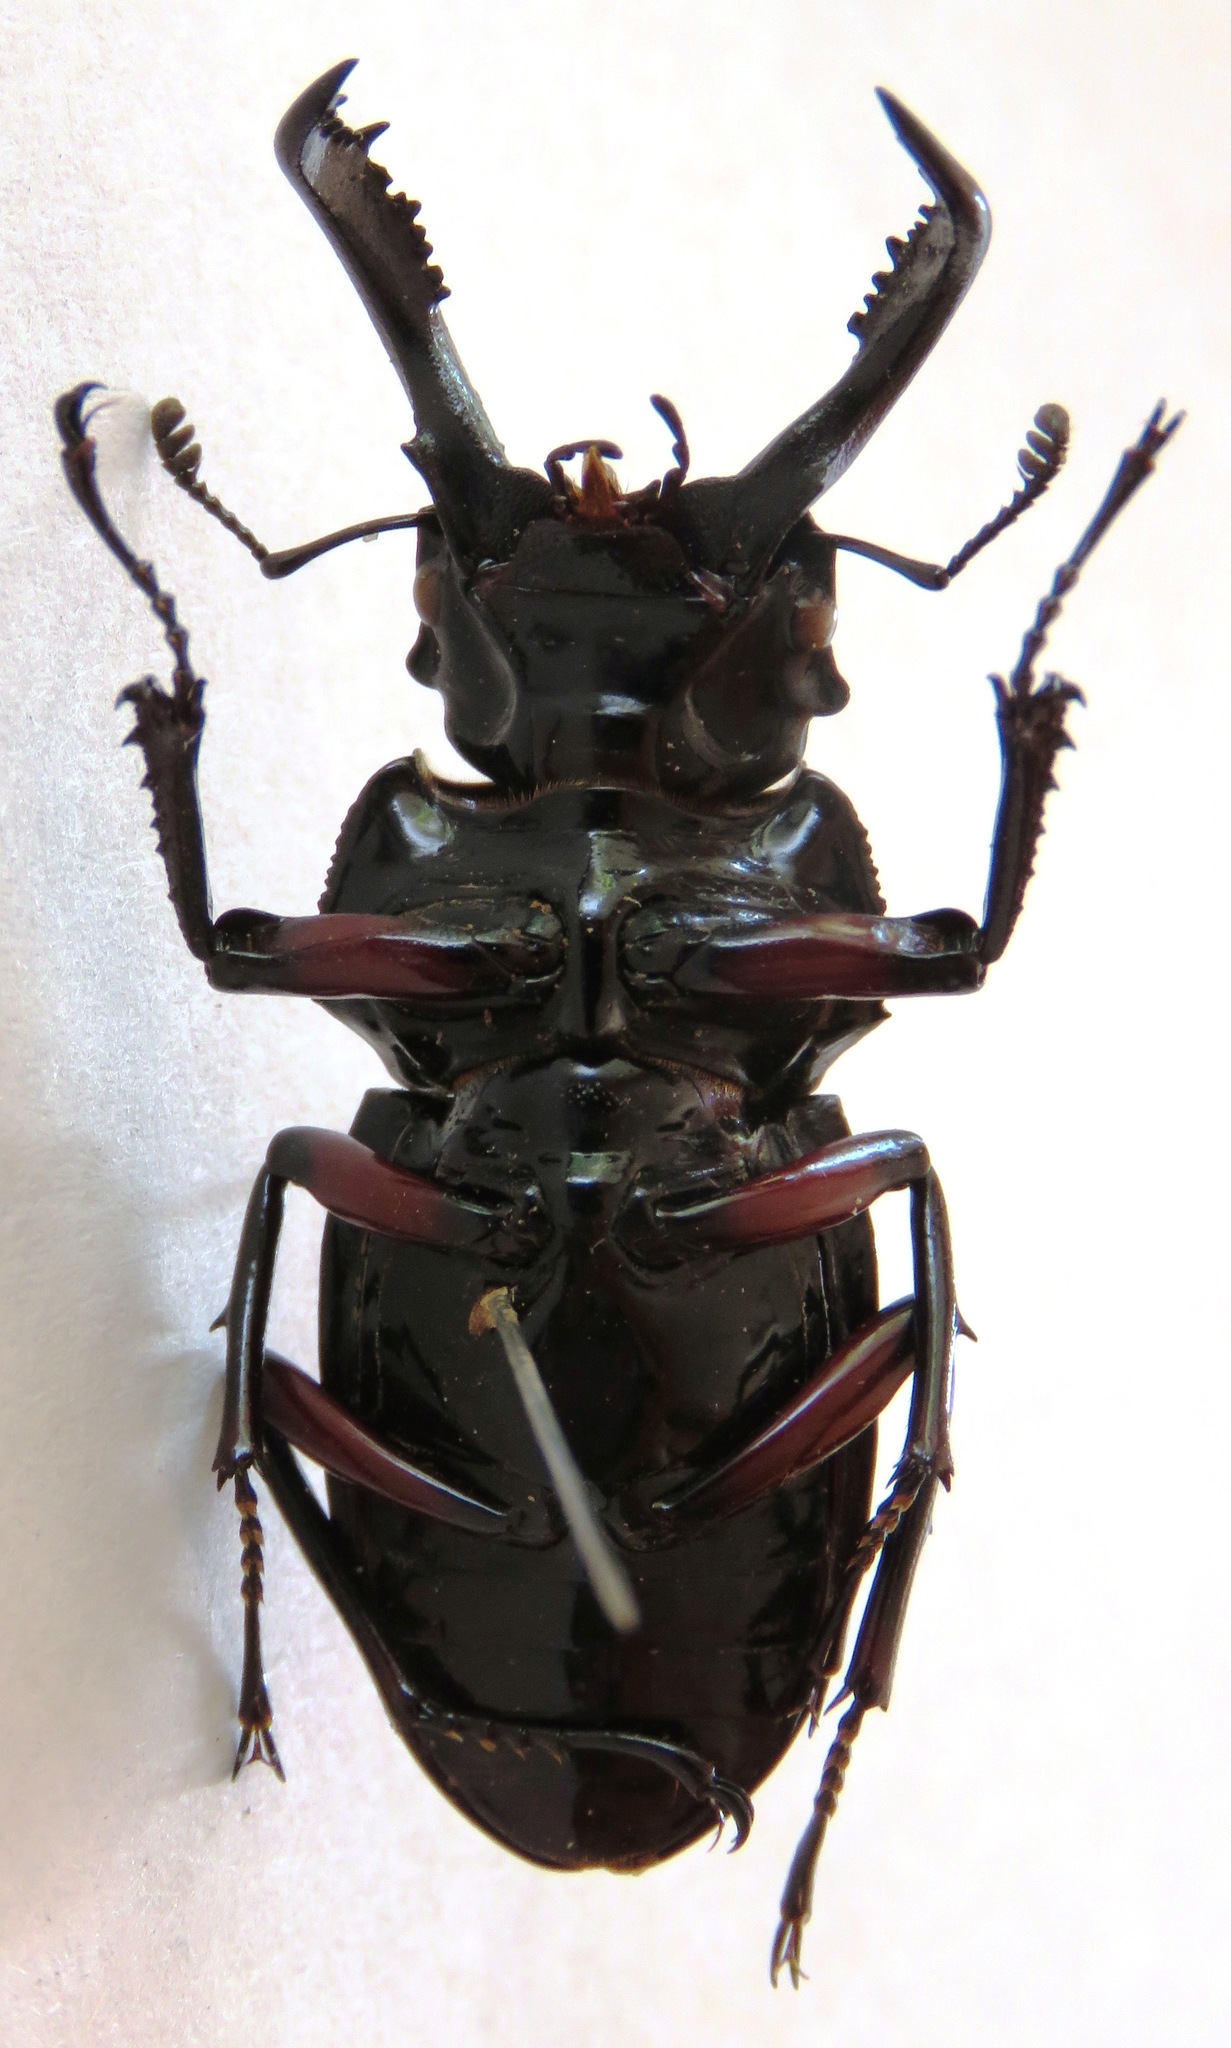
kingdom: Animalia
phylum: Arthropoda
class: Insecta
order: Coleoptera
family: Lucanidae
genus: Pseudorhaetus
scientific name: Pseudorhaetus oberthuri
